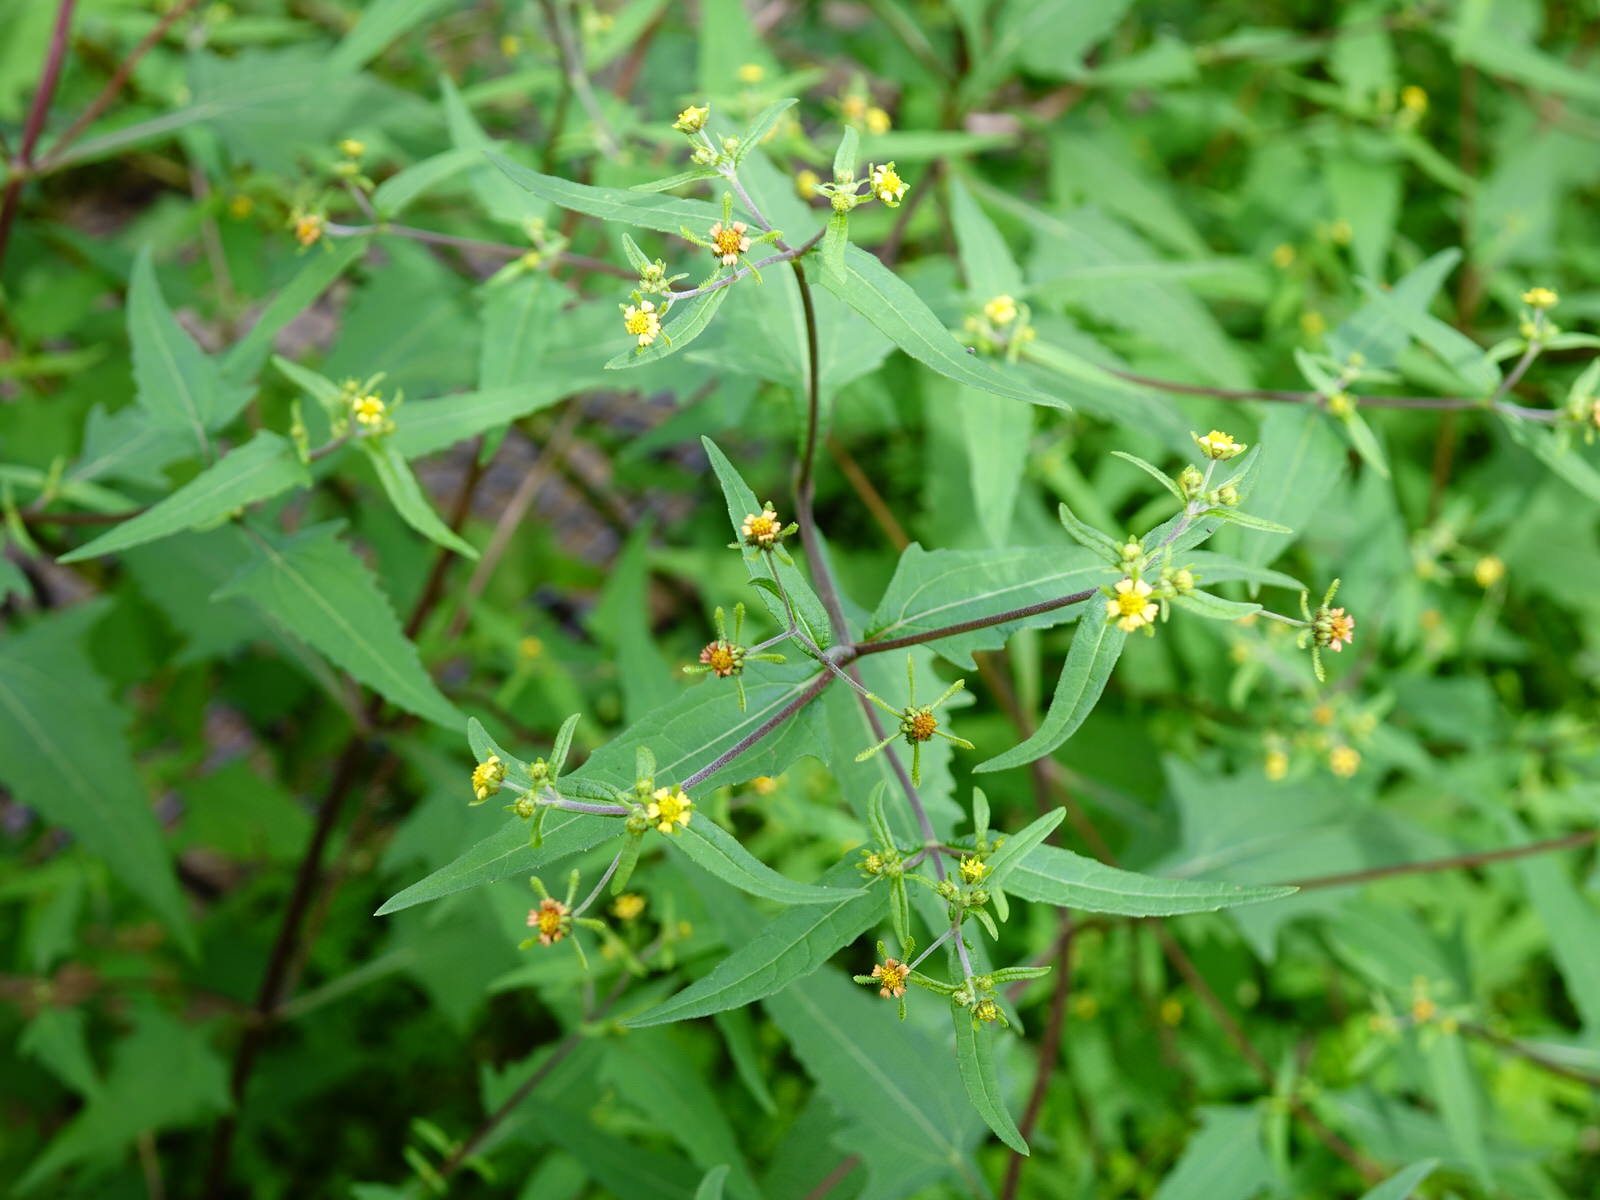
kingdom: Plantae
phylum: Tracheophyta
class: Magnoliopsida
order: Asterales
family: Asteraceae
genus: Sigesbeckia
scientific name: Sigesbeckia orientalis
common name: Eastern st paul's-wort
